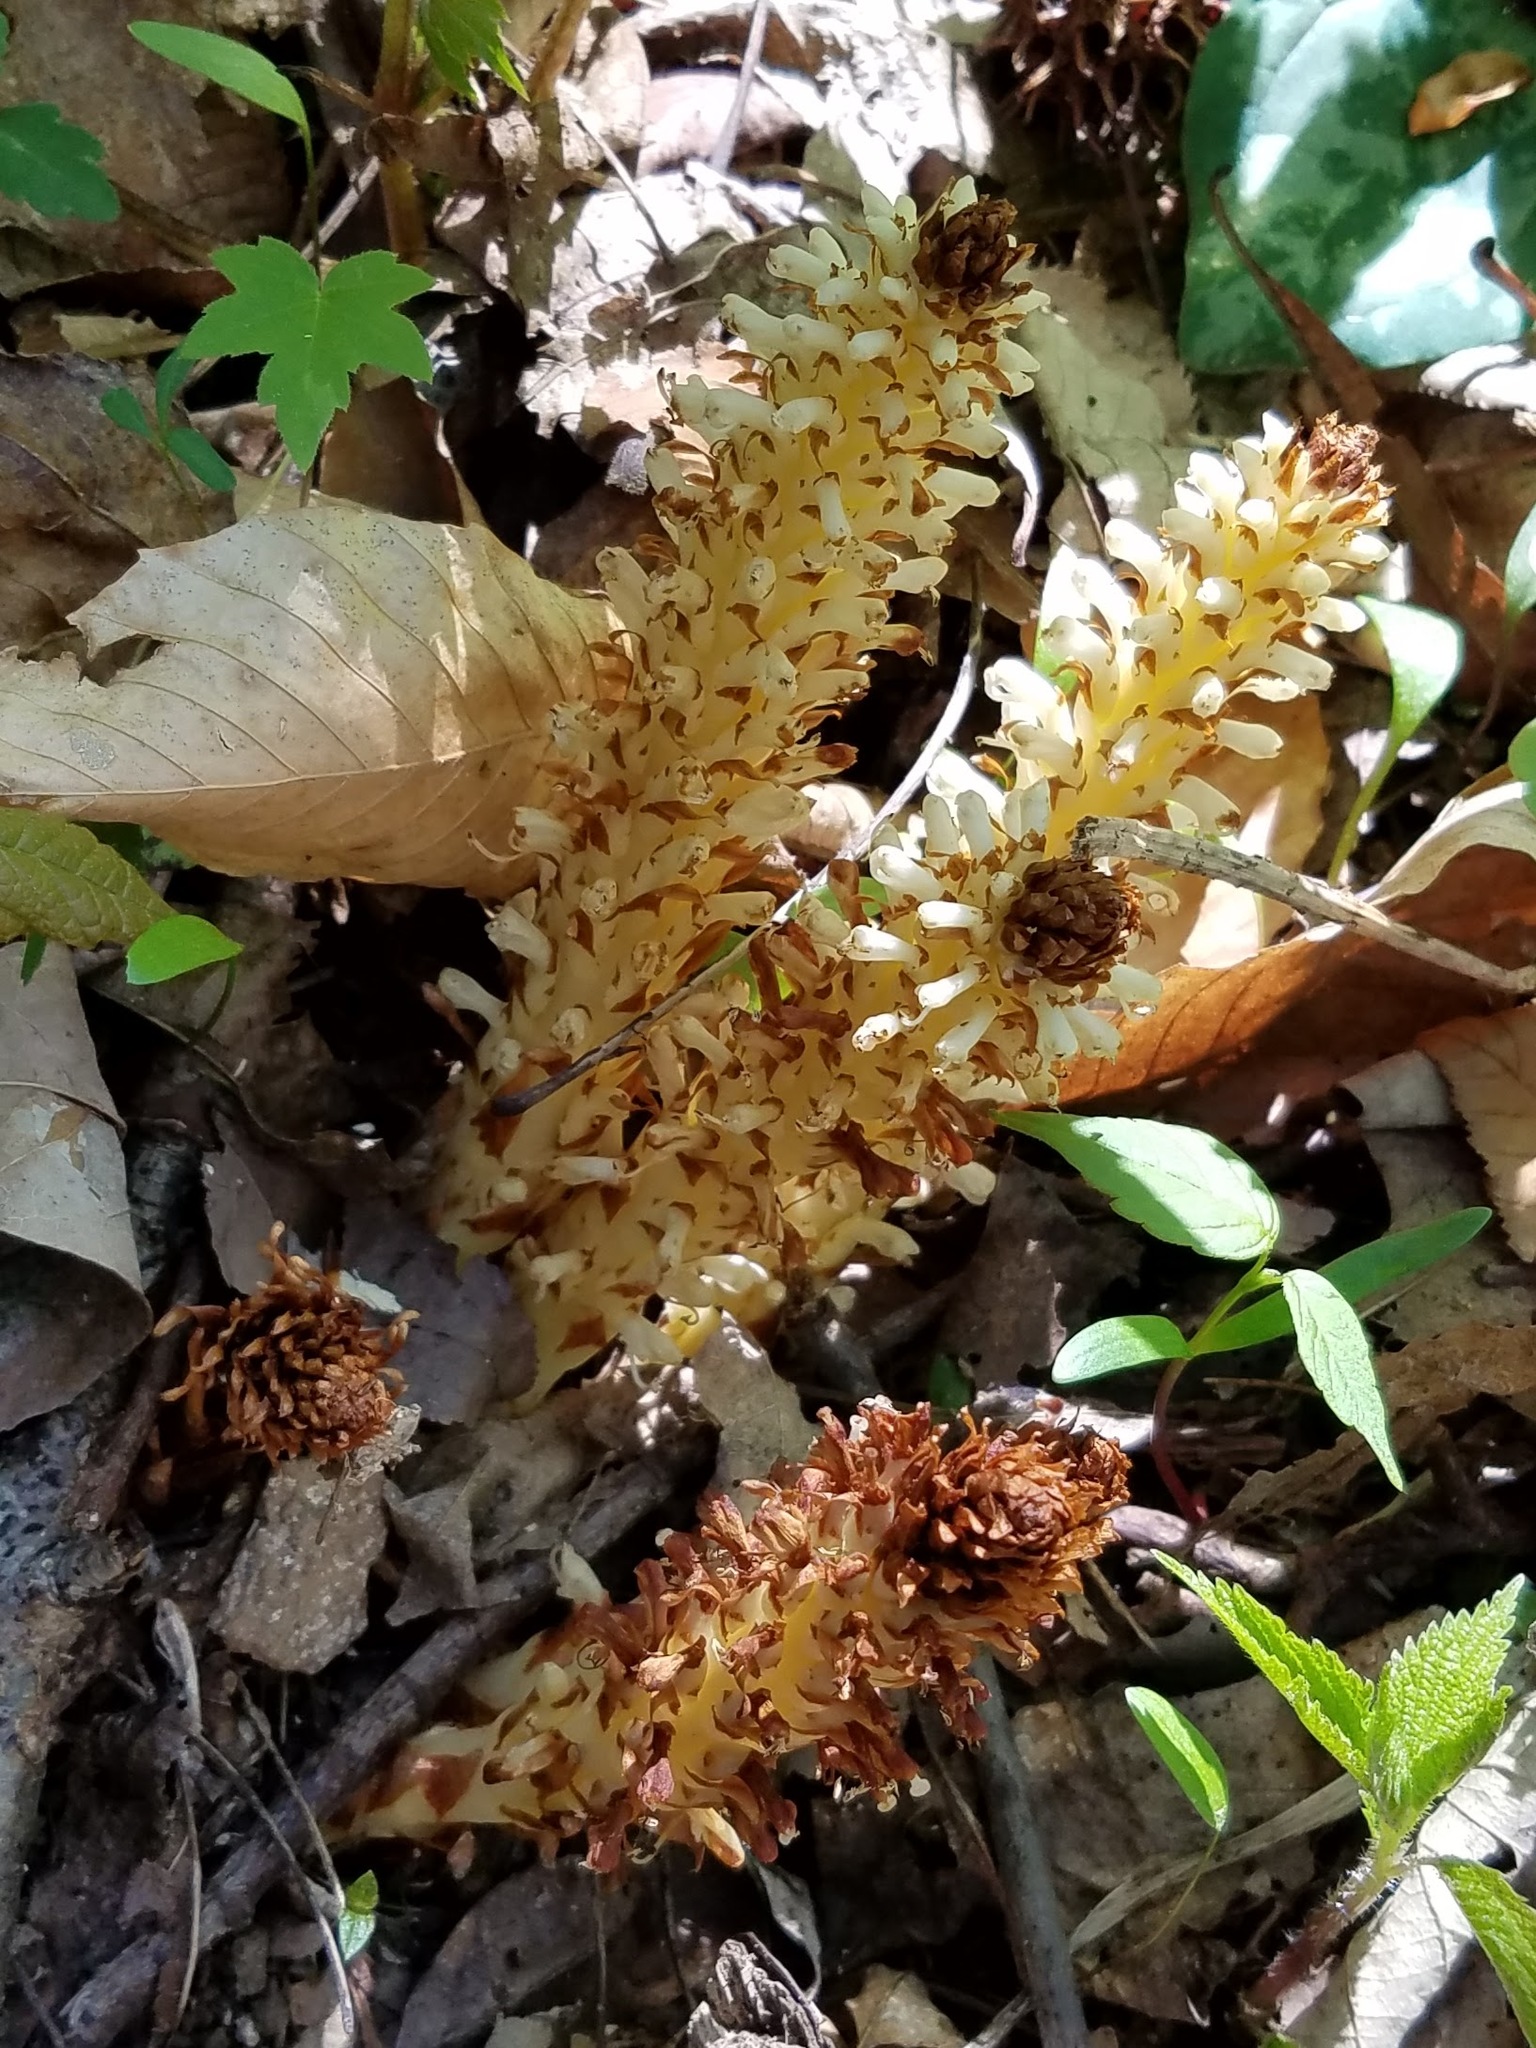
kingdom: Plantae
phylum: Tracheophyta
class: Magnoliopsida
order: Lamiales
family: Orobanchaceae
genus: Conopholis
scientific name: Conopholis americana
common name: American cancer-root
